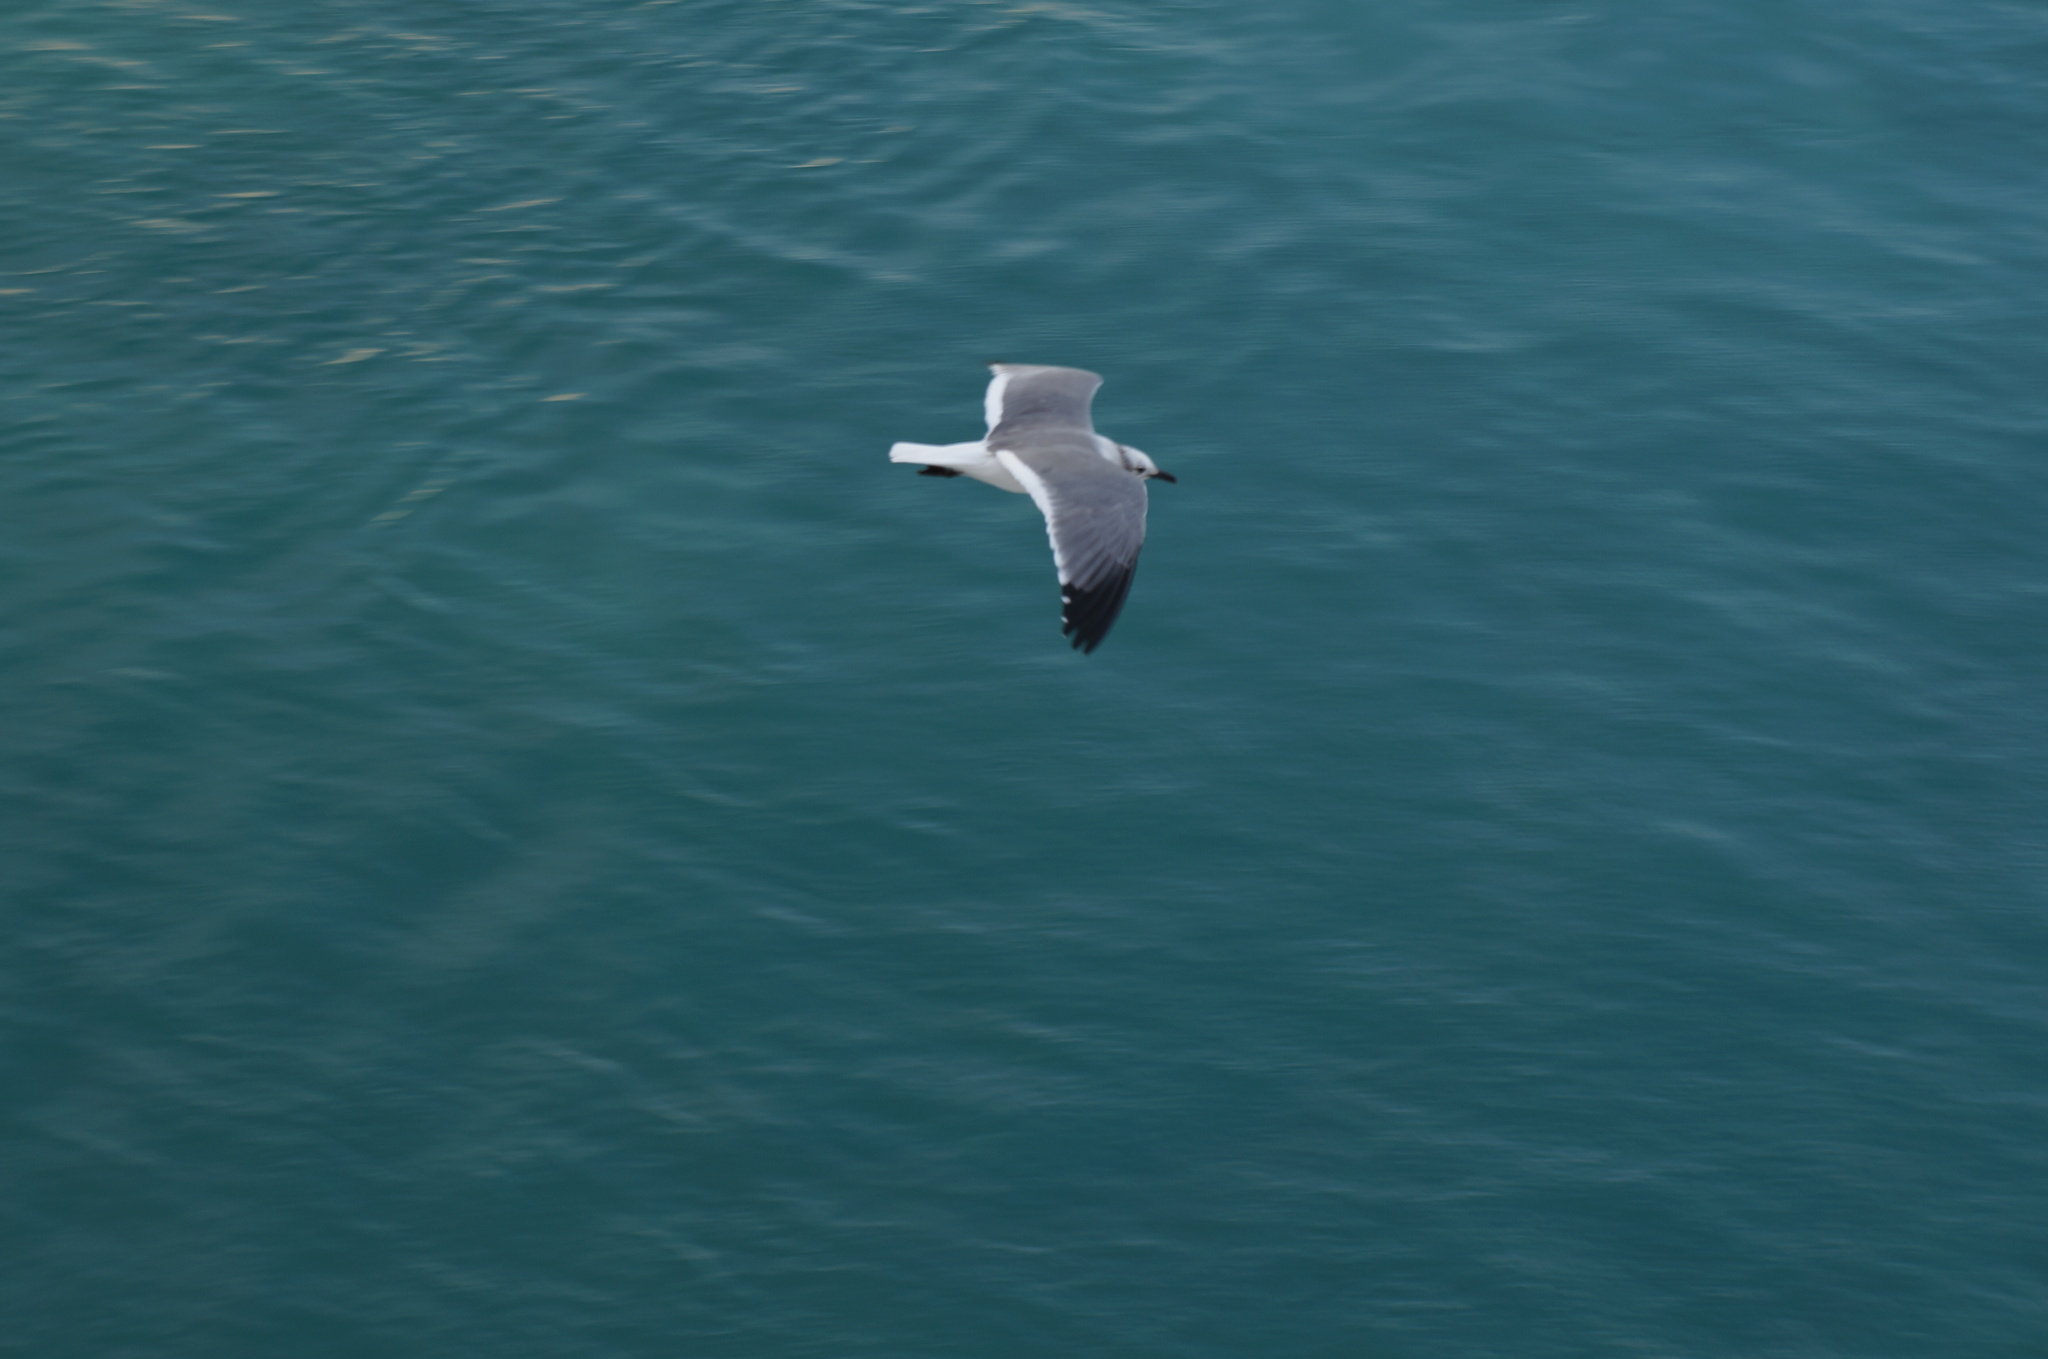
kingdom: Animalia
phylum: Chordata
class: Aves
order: Charadriiformes
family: Laridae
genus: Leucophaeus
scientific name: Leucophaeus atricilla
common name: Laughing gull
